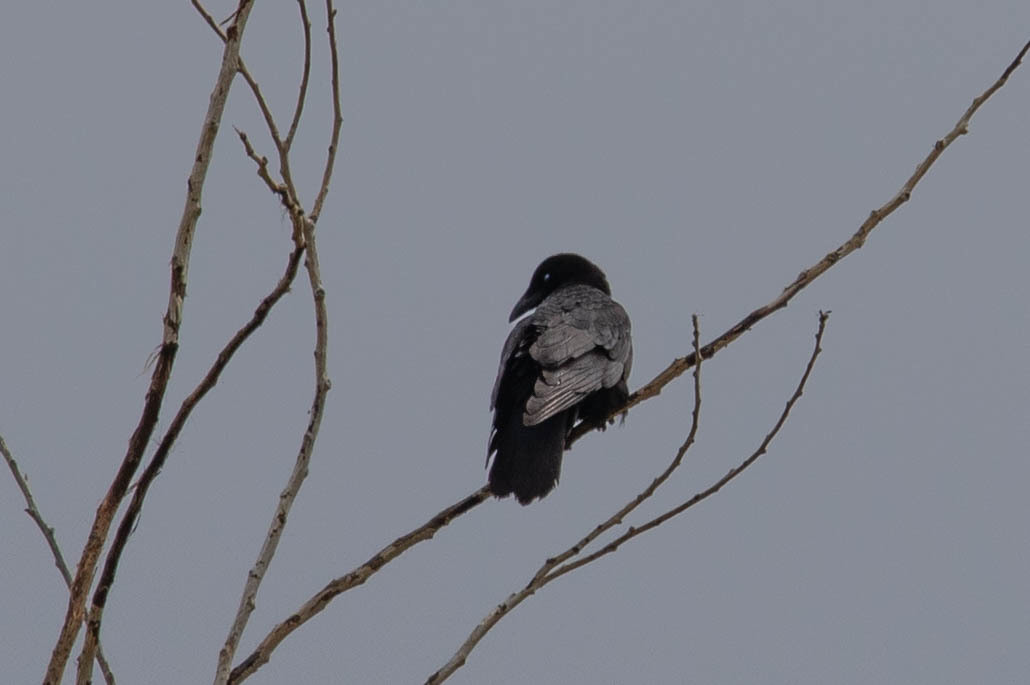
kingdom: Animalia
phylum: Chordata
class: Aves
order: Passeriformes
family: Corvidae
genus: Corvus
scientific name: Corvus brachyrhynchos
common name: American crow
